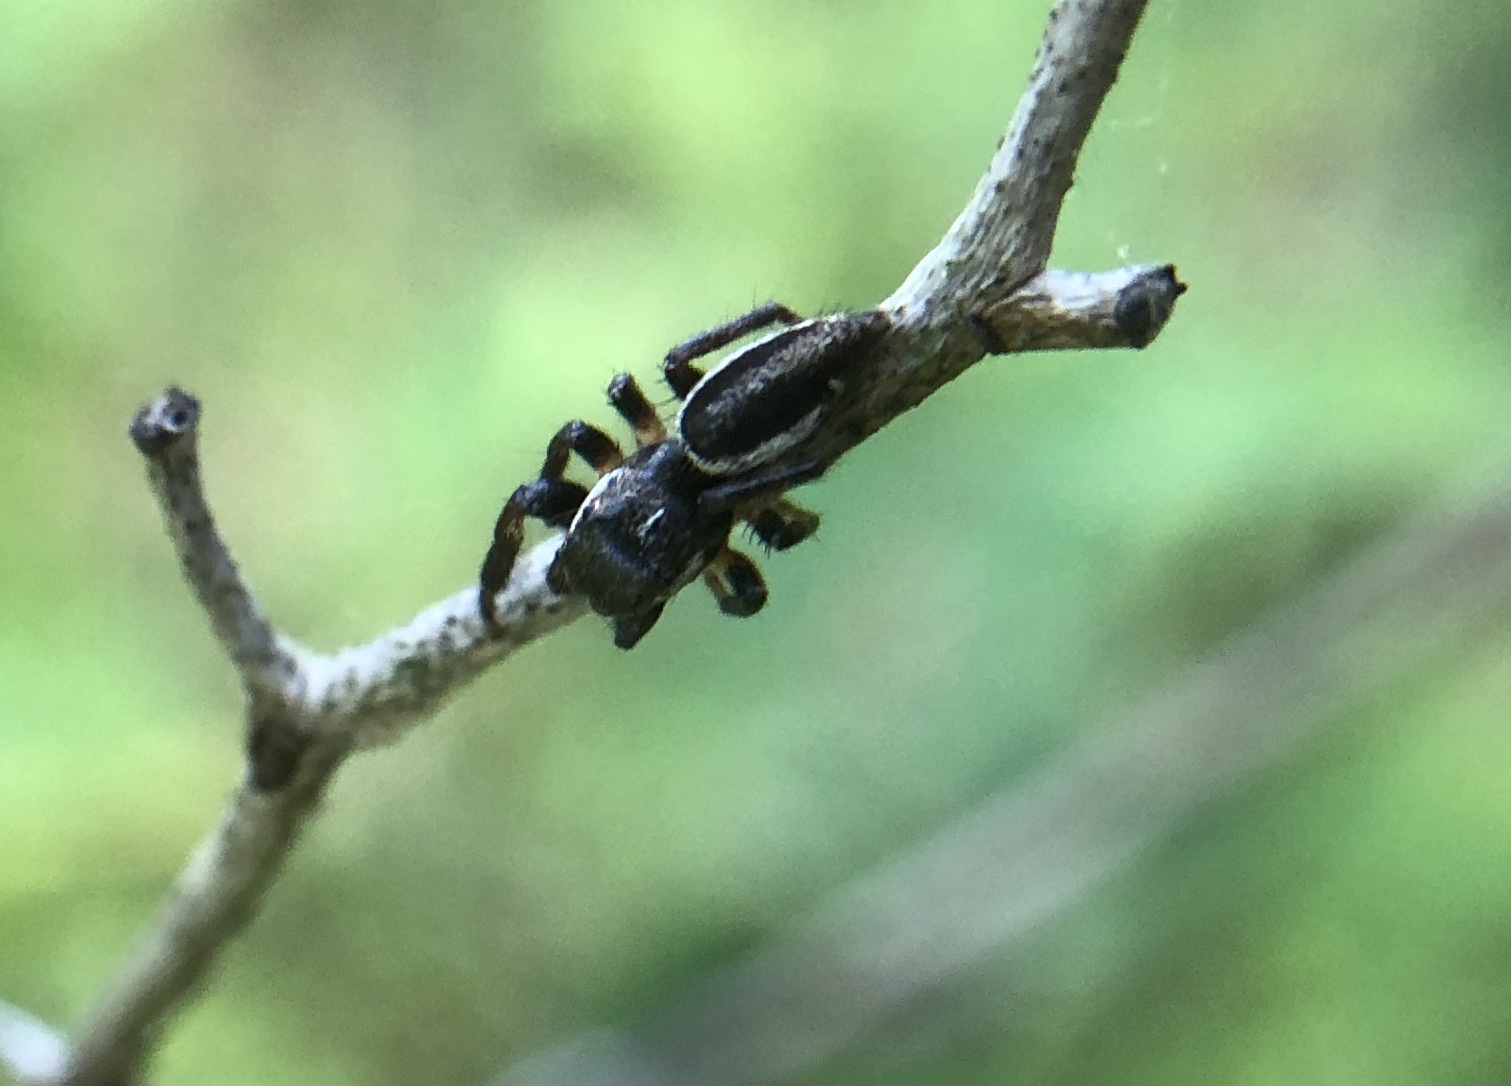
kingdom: Animalia
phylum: Arthropoda
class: Arachnida
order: Araneae
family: Salticidae
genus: Eris
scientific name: Eris militaris
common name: Bronze jumper
